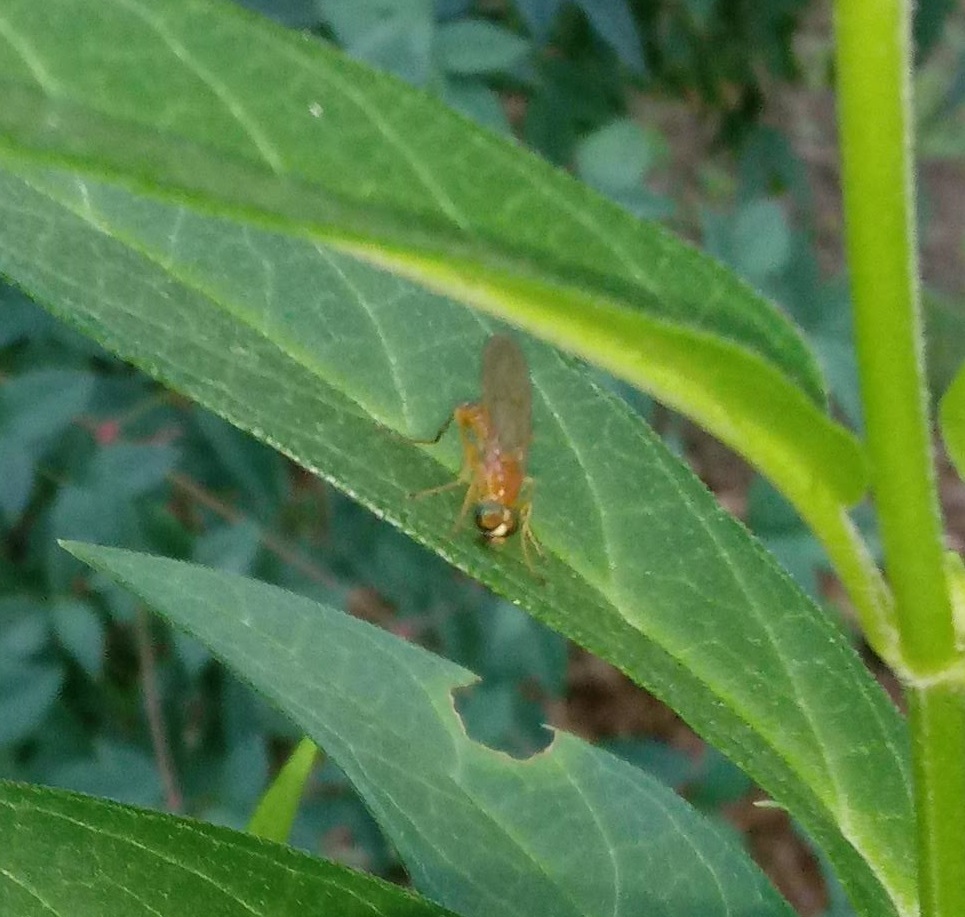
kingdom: Animalia
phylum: Arthropoda
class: Insecta
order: Diptera
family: Stratiomyidae
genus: Ptecticus
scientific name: Ptecticus trivittatus
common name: Compost fly
